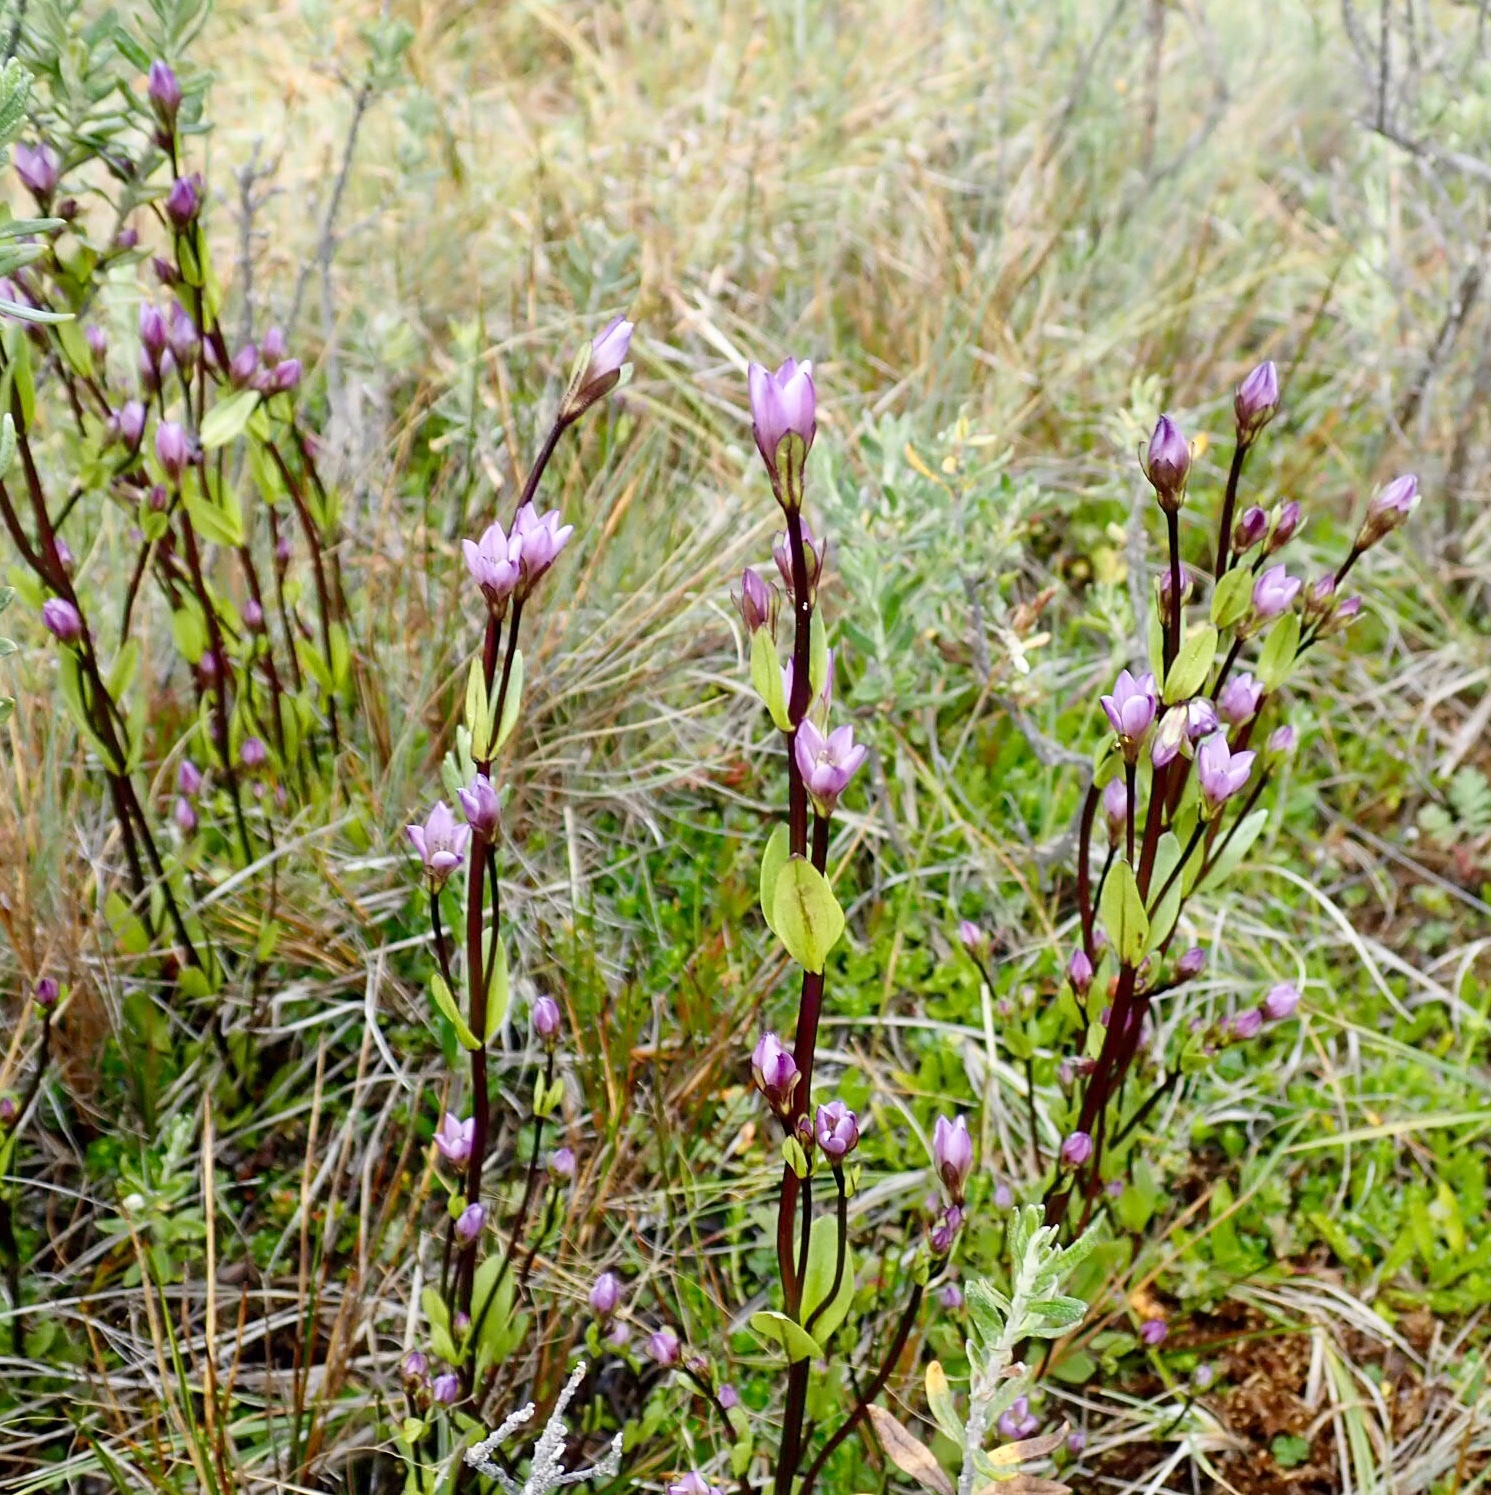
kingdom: Plantae
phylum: Tracheophyta
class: Magnoliopsida
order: Gentianales
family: Gentianaceae
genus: Gentianella
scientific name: Gentianella magellanica
